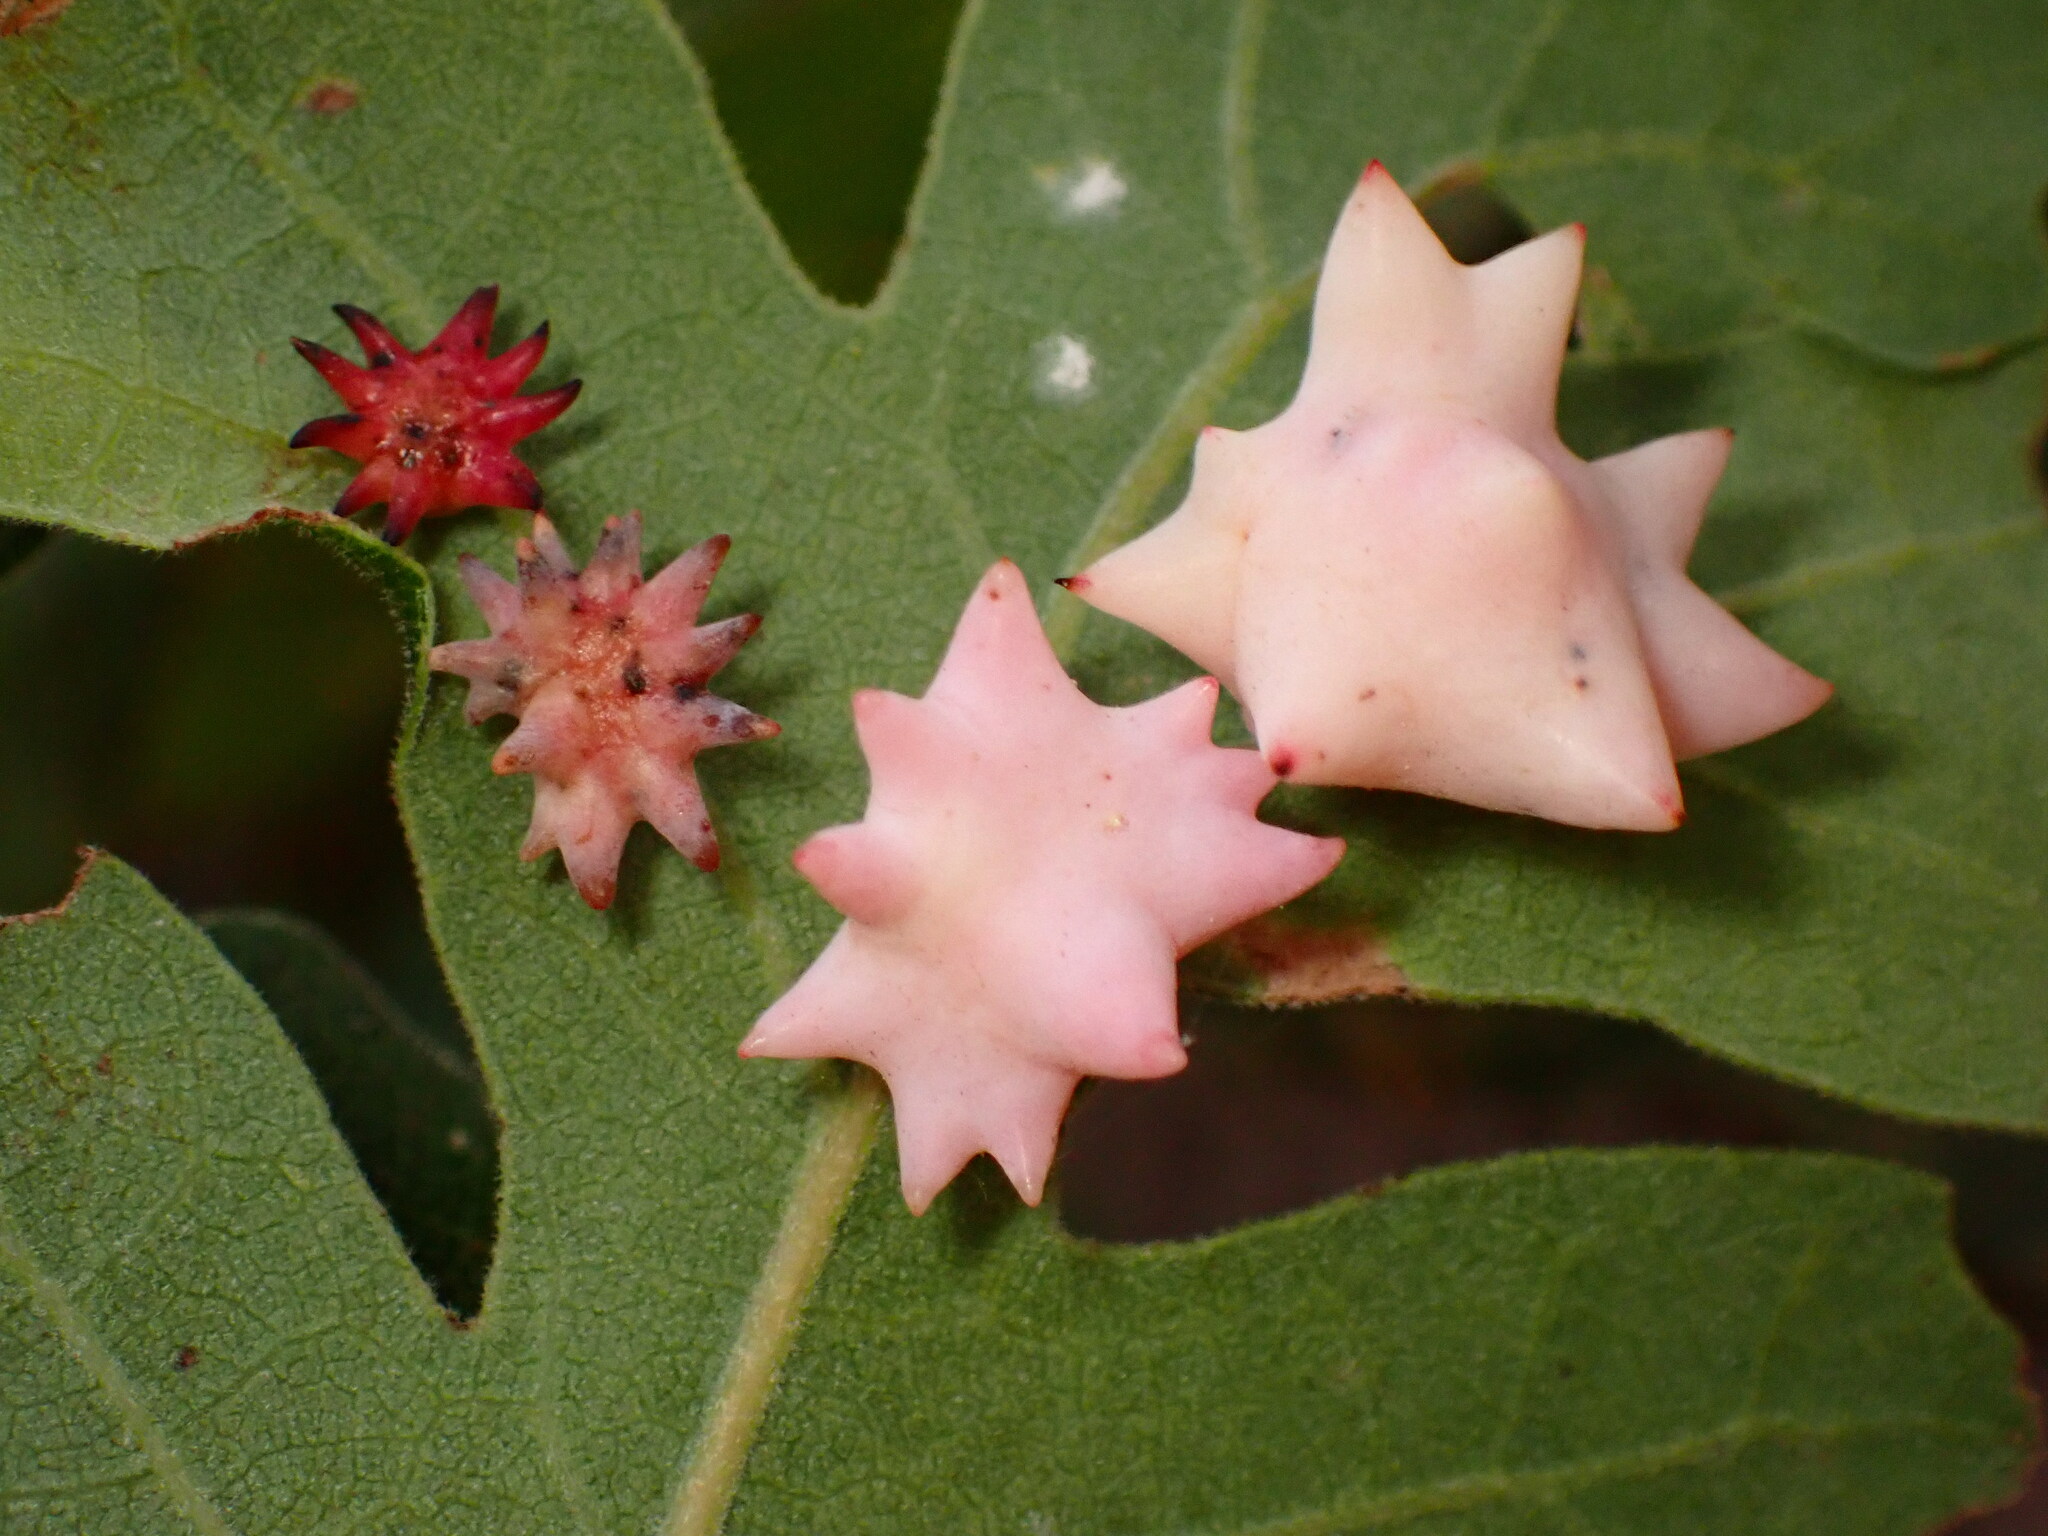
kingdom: Animalia
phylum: Arthropoda
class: Insecta
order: Hymenoptera
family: Cynipidae
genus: Cynips
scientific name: Cynips douglasi
